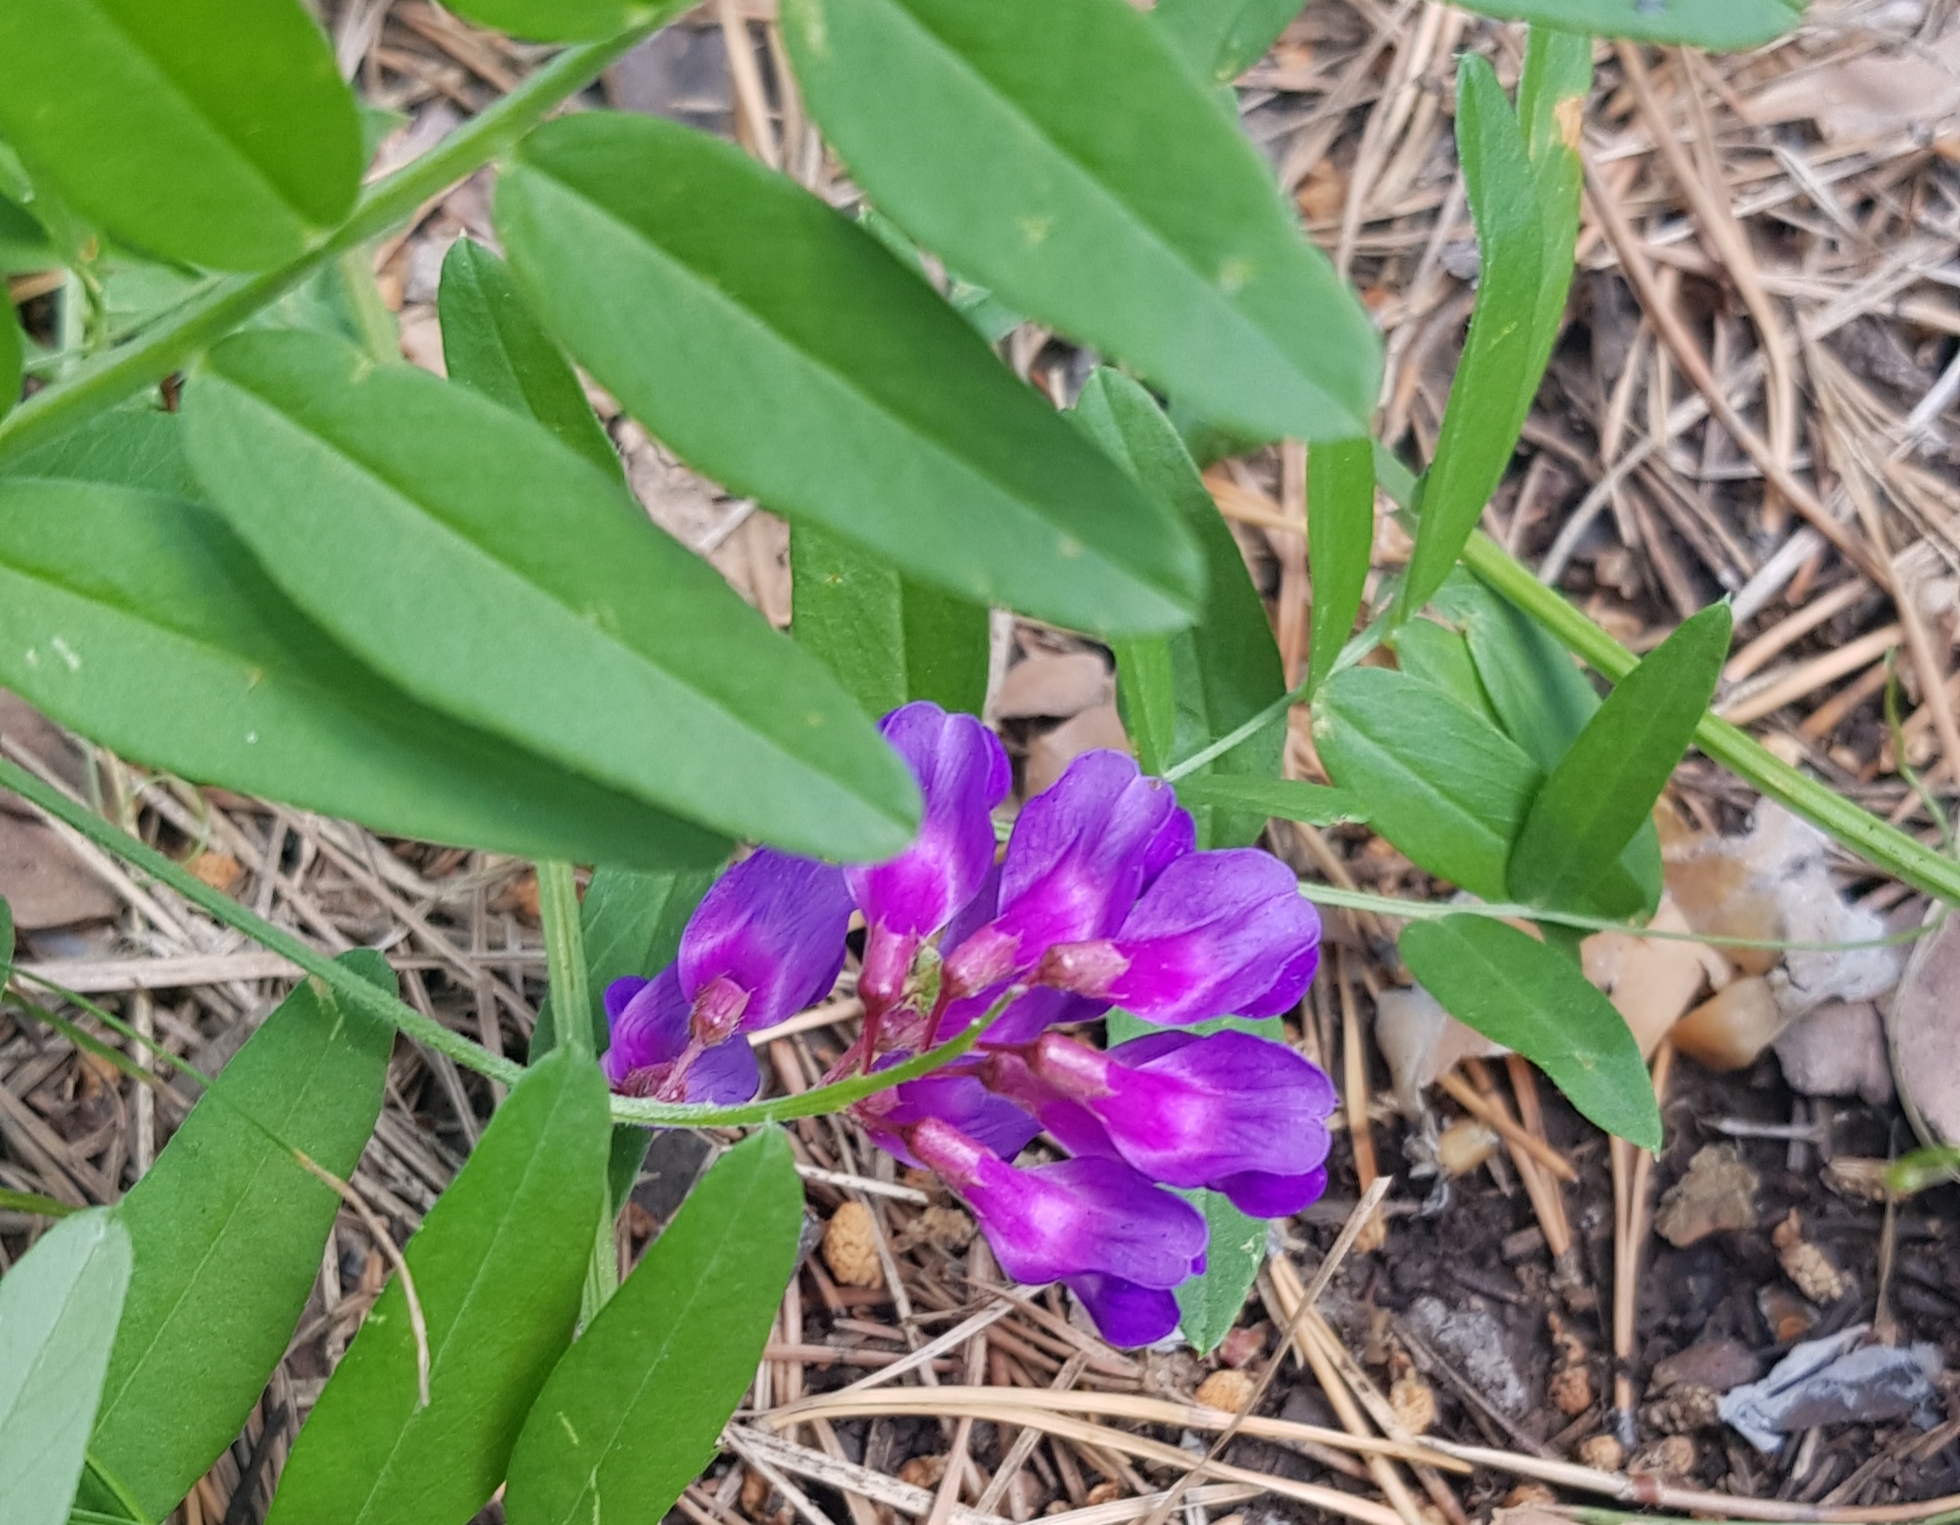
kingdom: Plantae
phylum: Tracheophyta
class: Magnoliopsida
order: Fabales
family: Fabaceae
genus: Vicia
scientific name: Vicia amoena
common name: Cheder ebs
